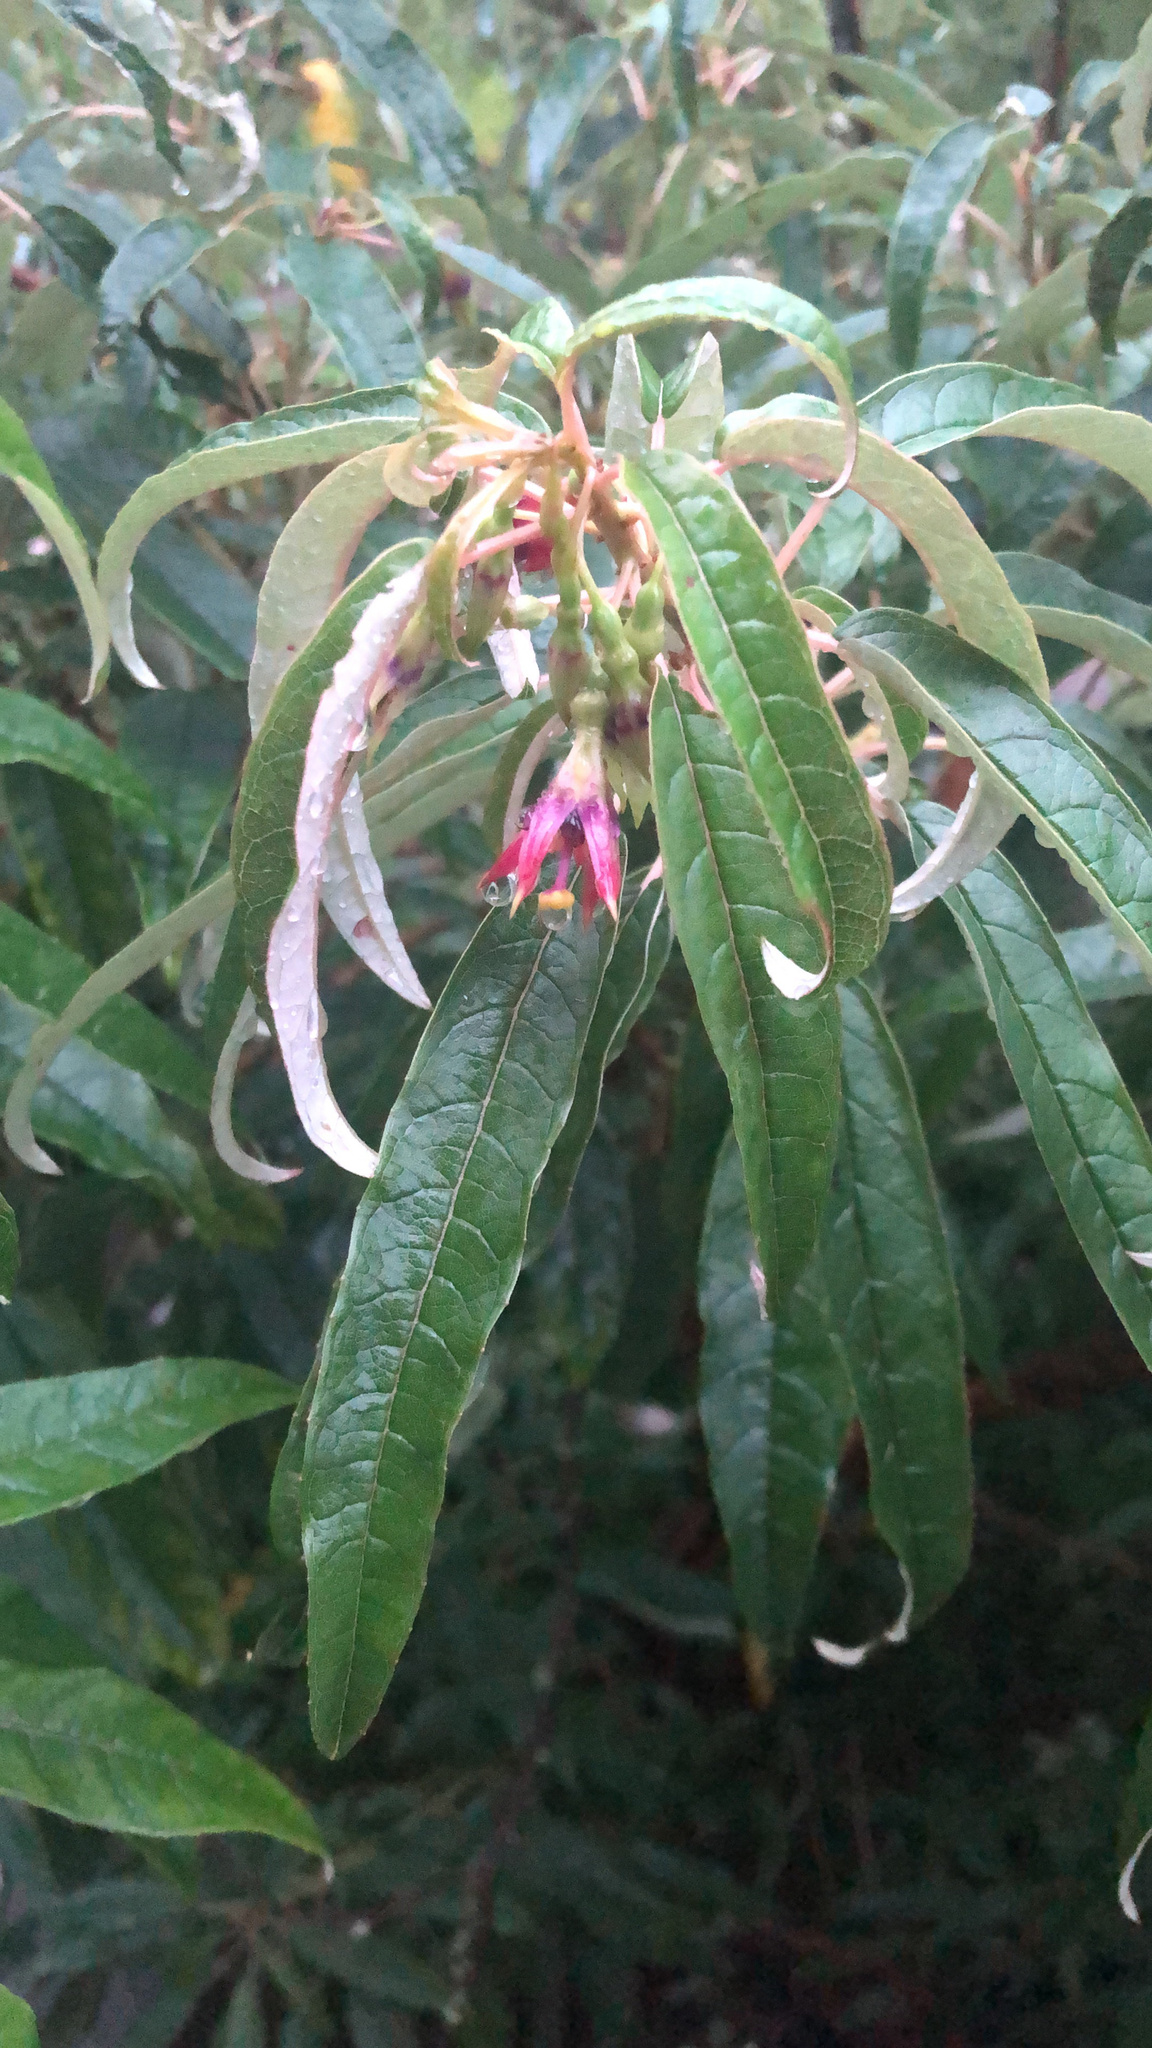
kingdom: Plantae
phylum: Tracheophyta
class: Magnoliopsida
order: Myrtales
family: Onagraceae
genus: Fuchsia
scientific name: Fuchsia excorticata
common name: Tree fuchsia
